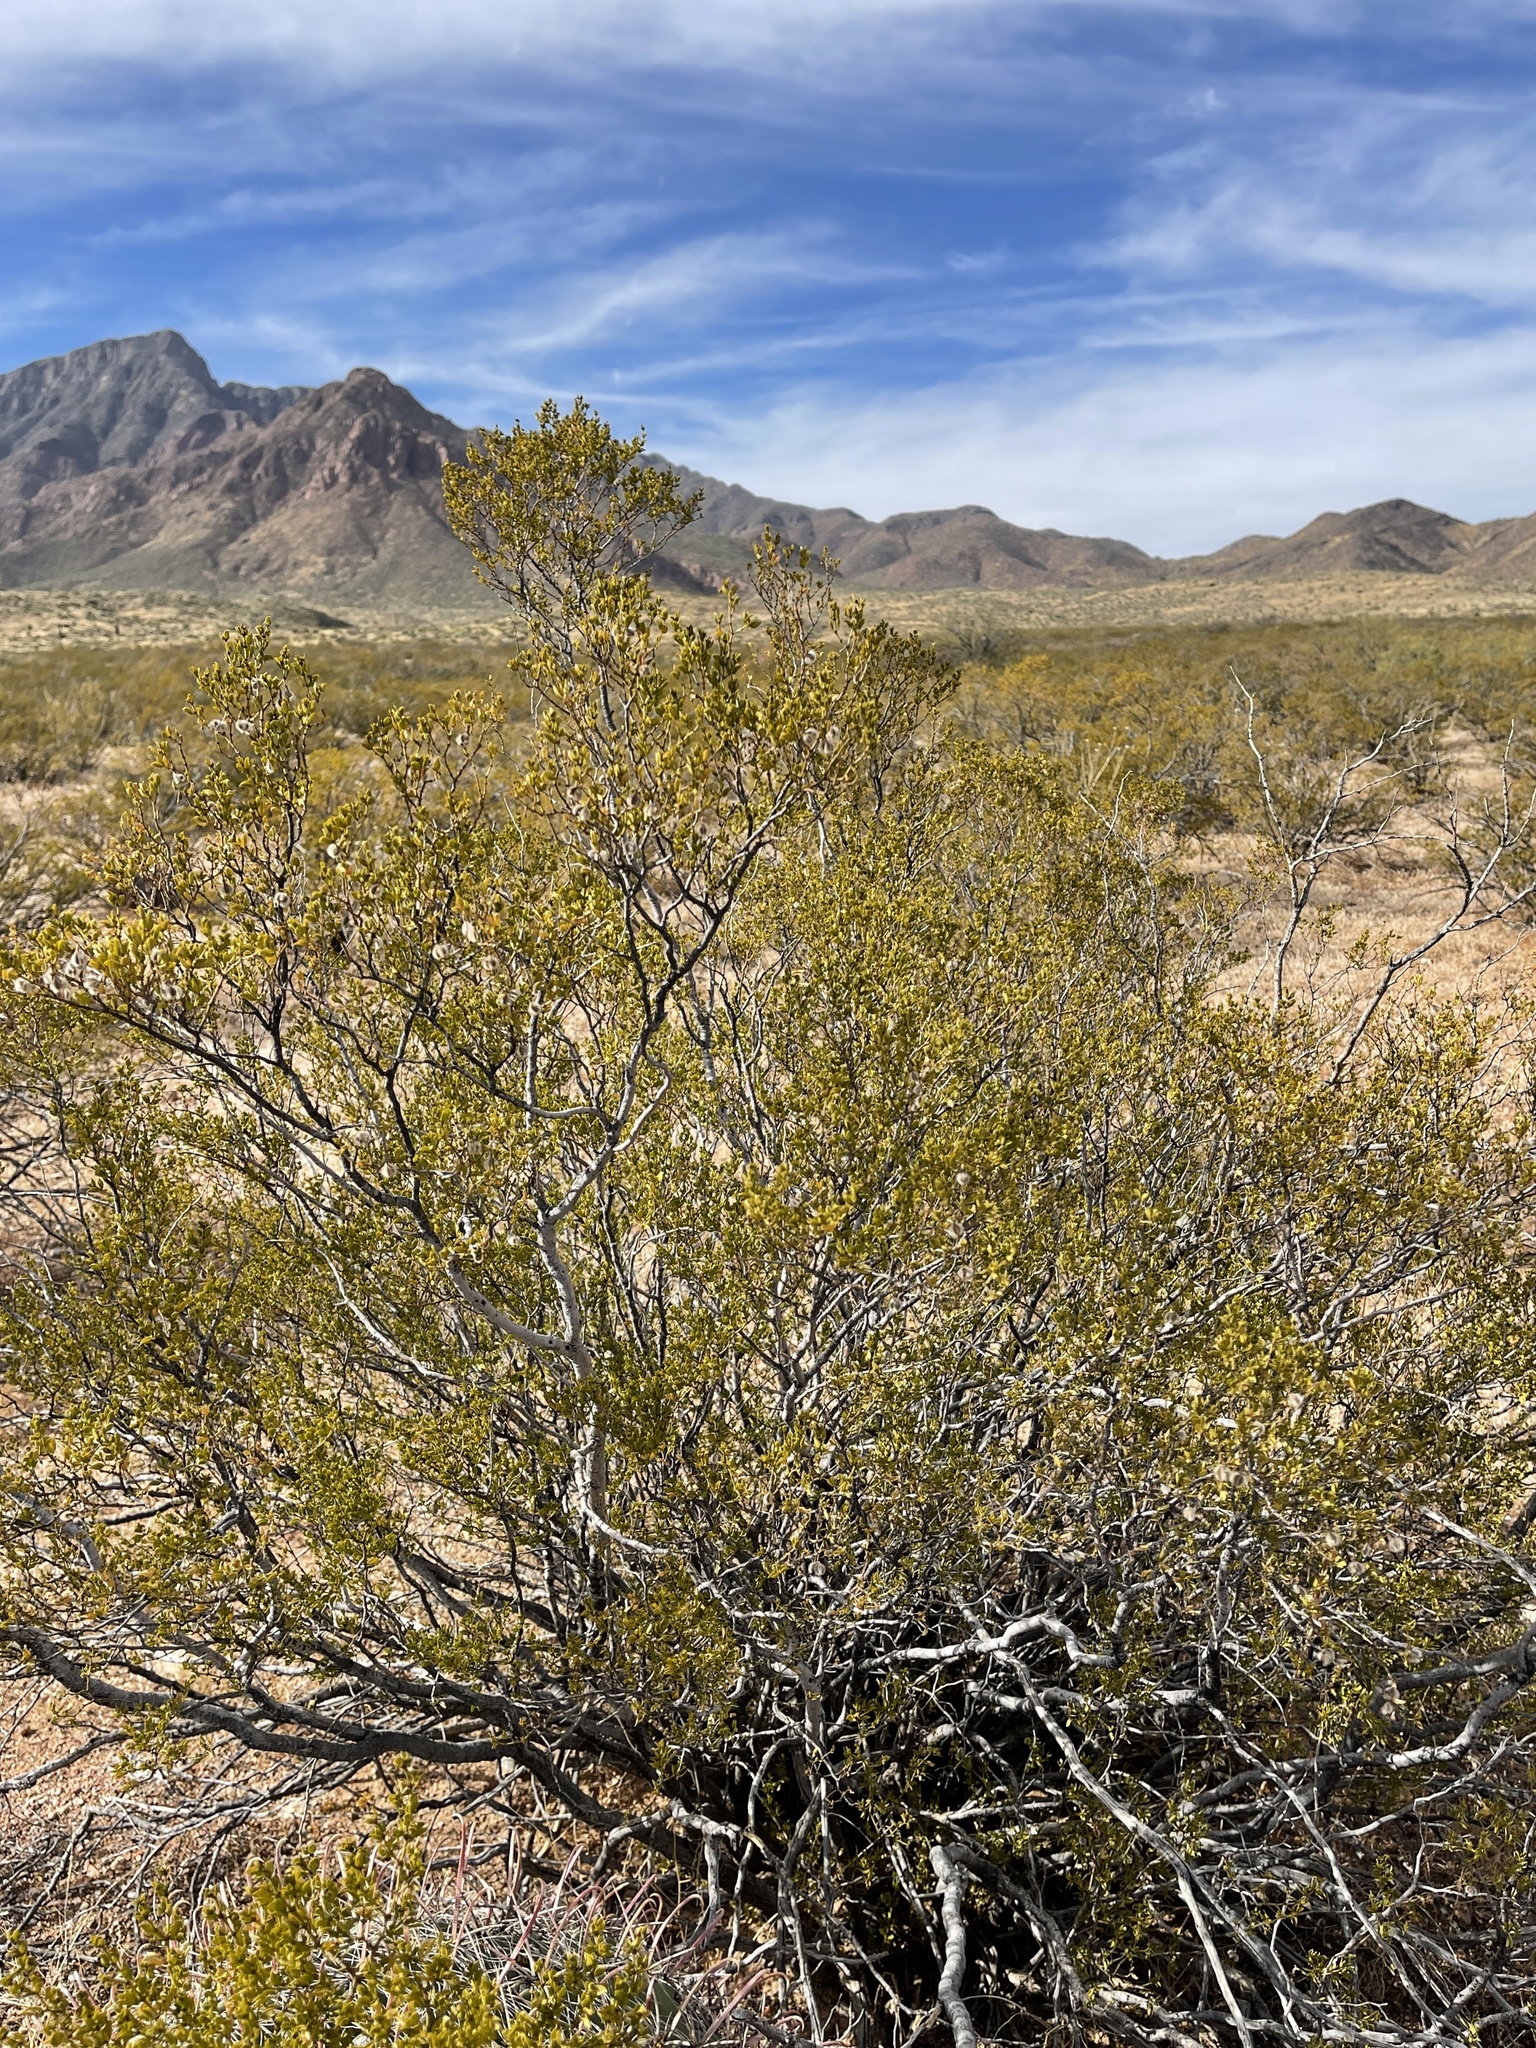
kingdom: Plantae
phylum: Tracheophyta
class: Magnoliopsida
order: Zygophyllales
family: Zygophyllaceae
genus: Larrea
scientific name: Larrea tridentata
